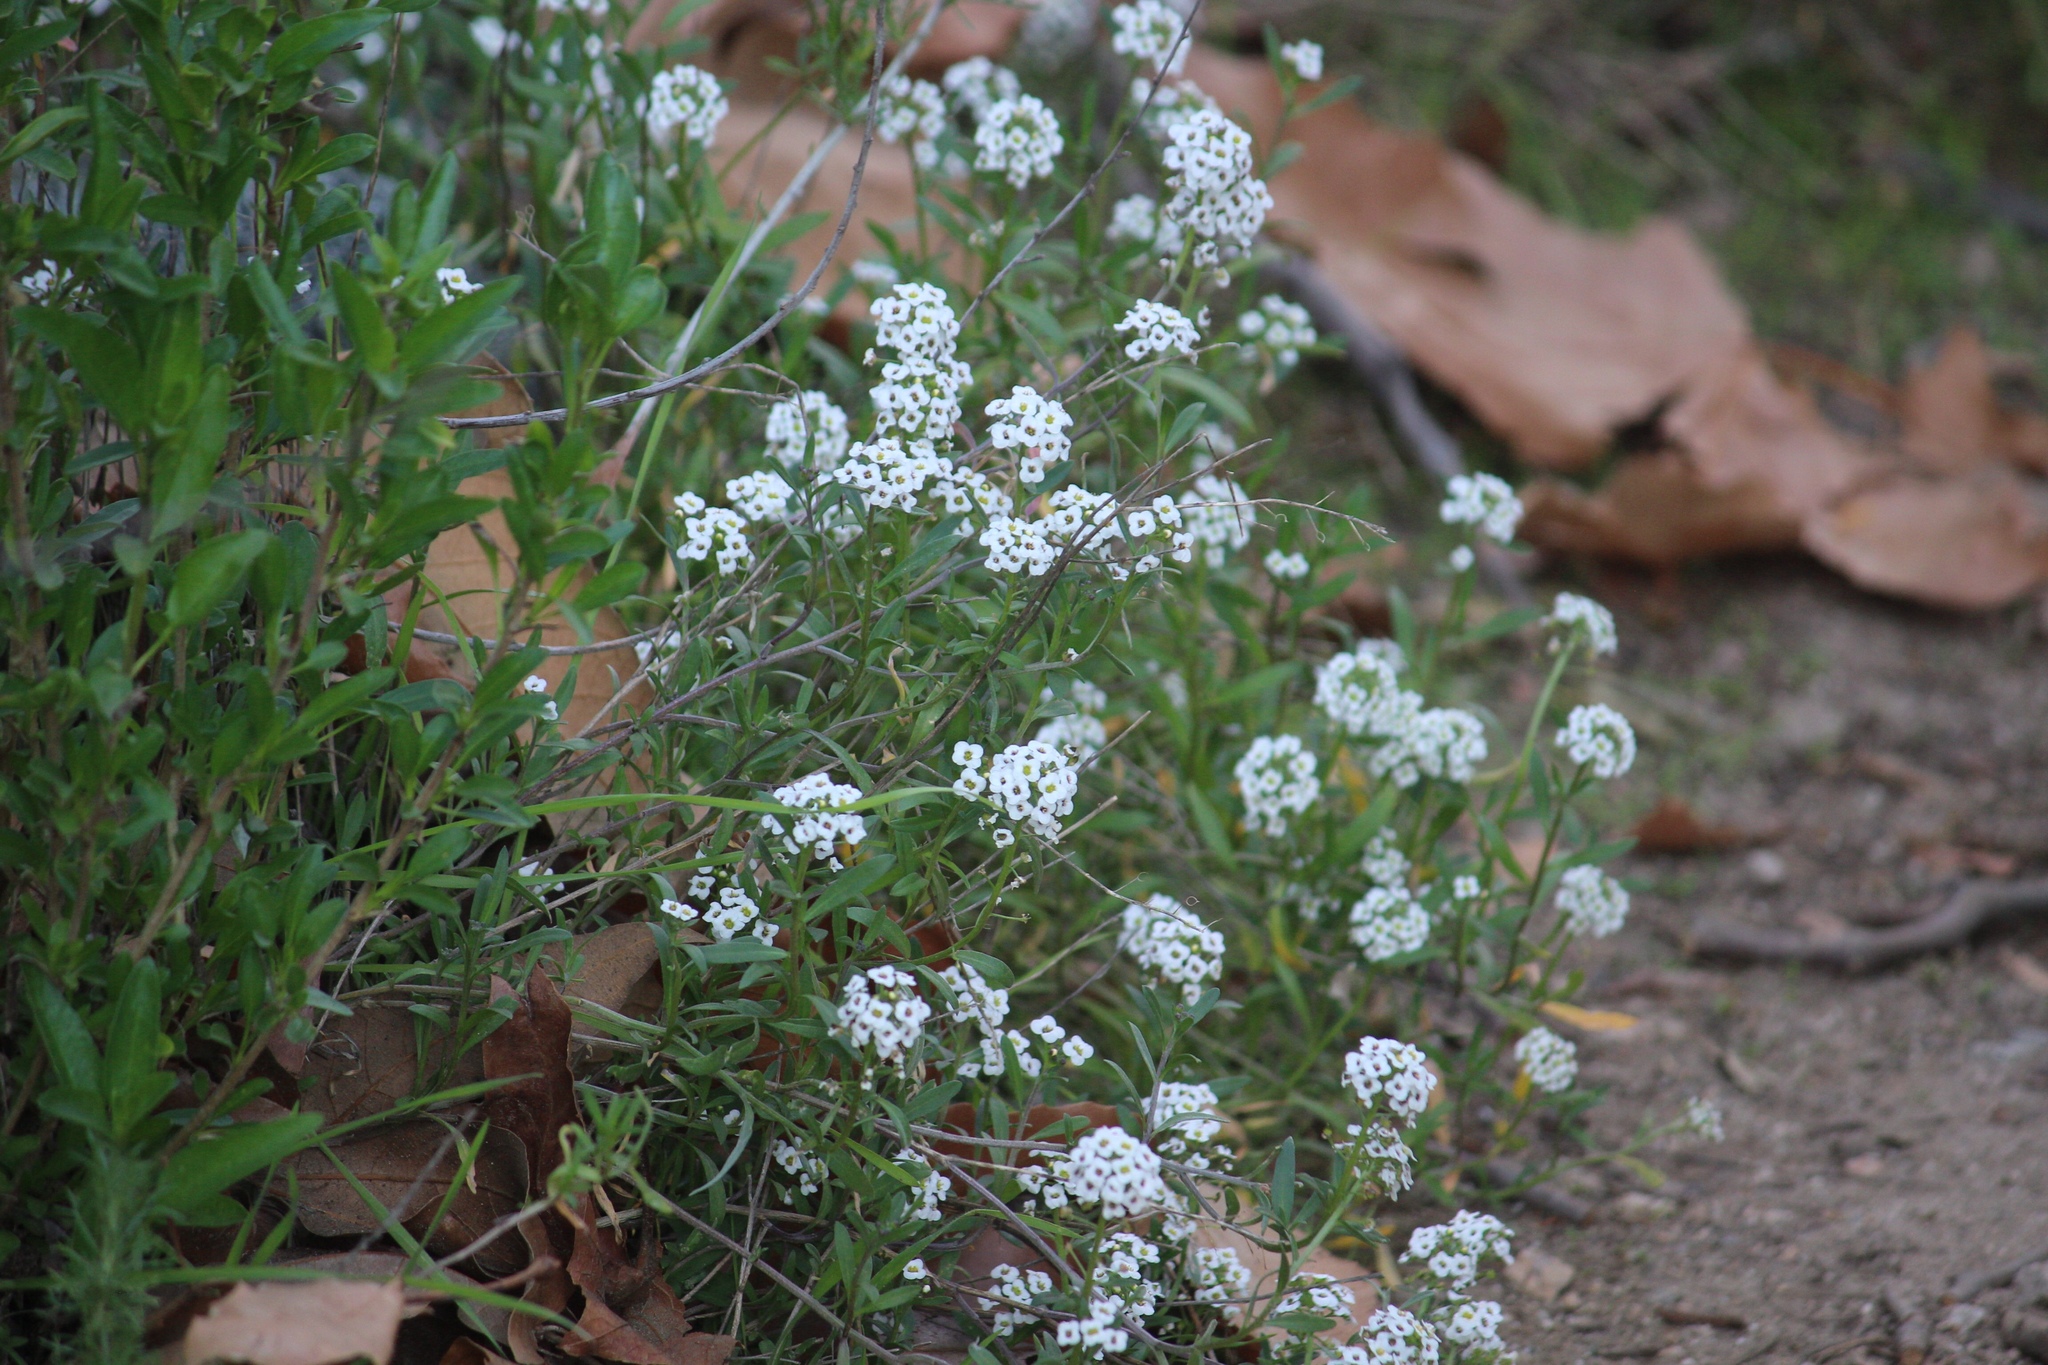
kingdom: Plantae
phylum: Tracheophyta
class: Magnoliopsida
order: Brassicales
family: Brassicaceae
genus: Lobularia
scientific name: Lobularia maritima
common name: Sweet alison
